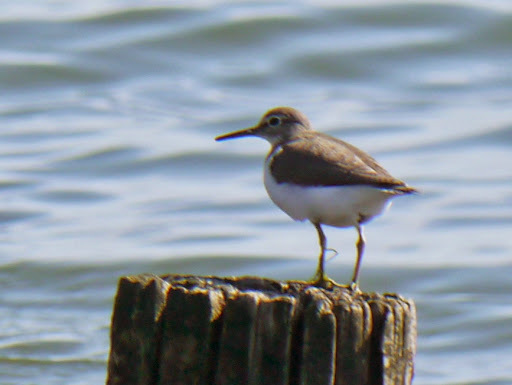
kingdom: Animalia
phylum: Chordata
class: Aves
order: Charadriiformes
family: Scolopacidae
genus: Actitis
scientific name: Actitis hypoleucos
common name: Common sandpiper
